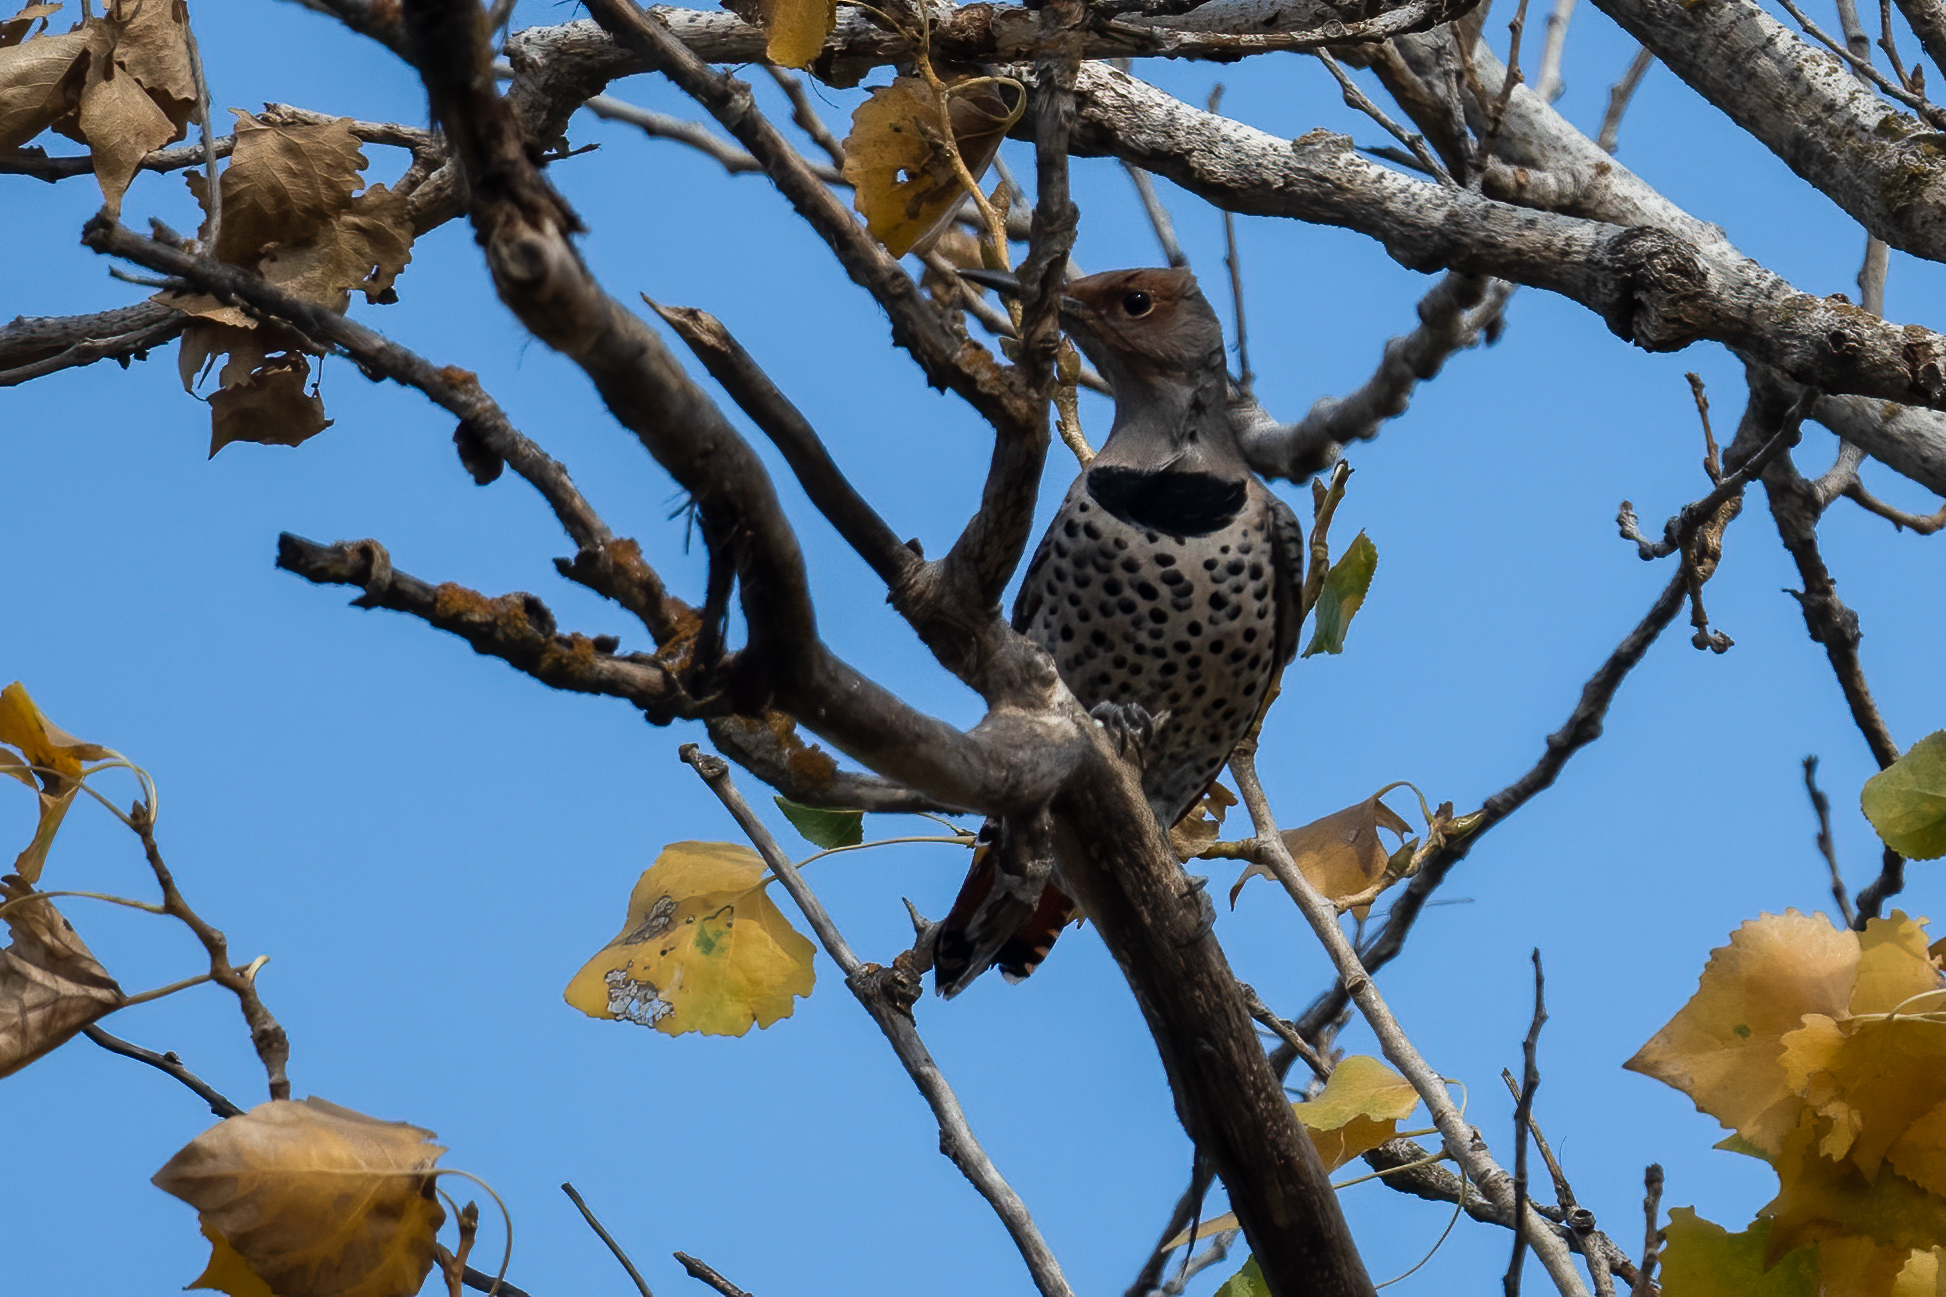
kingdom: Animalia
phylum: Chordata
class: Aves
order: Piciformes
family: Picidae
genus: Colaptes
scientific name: Colaptes auratus
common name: Northern flicker
